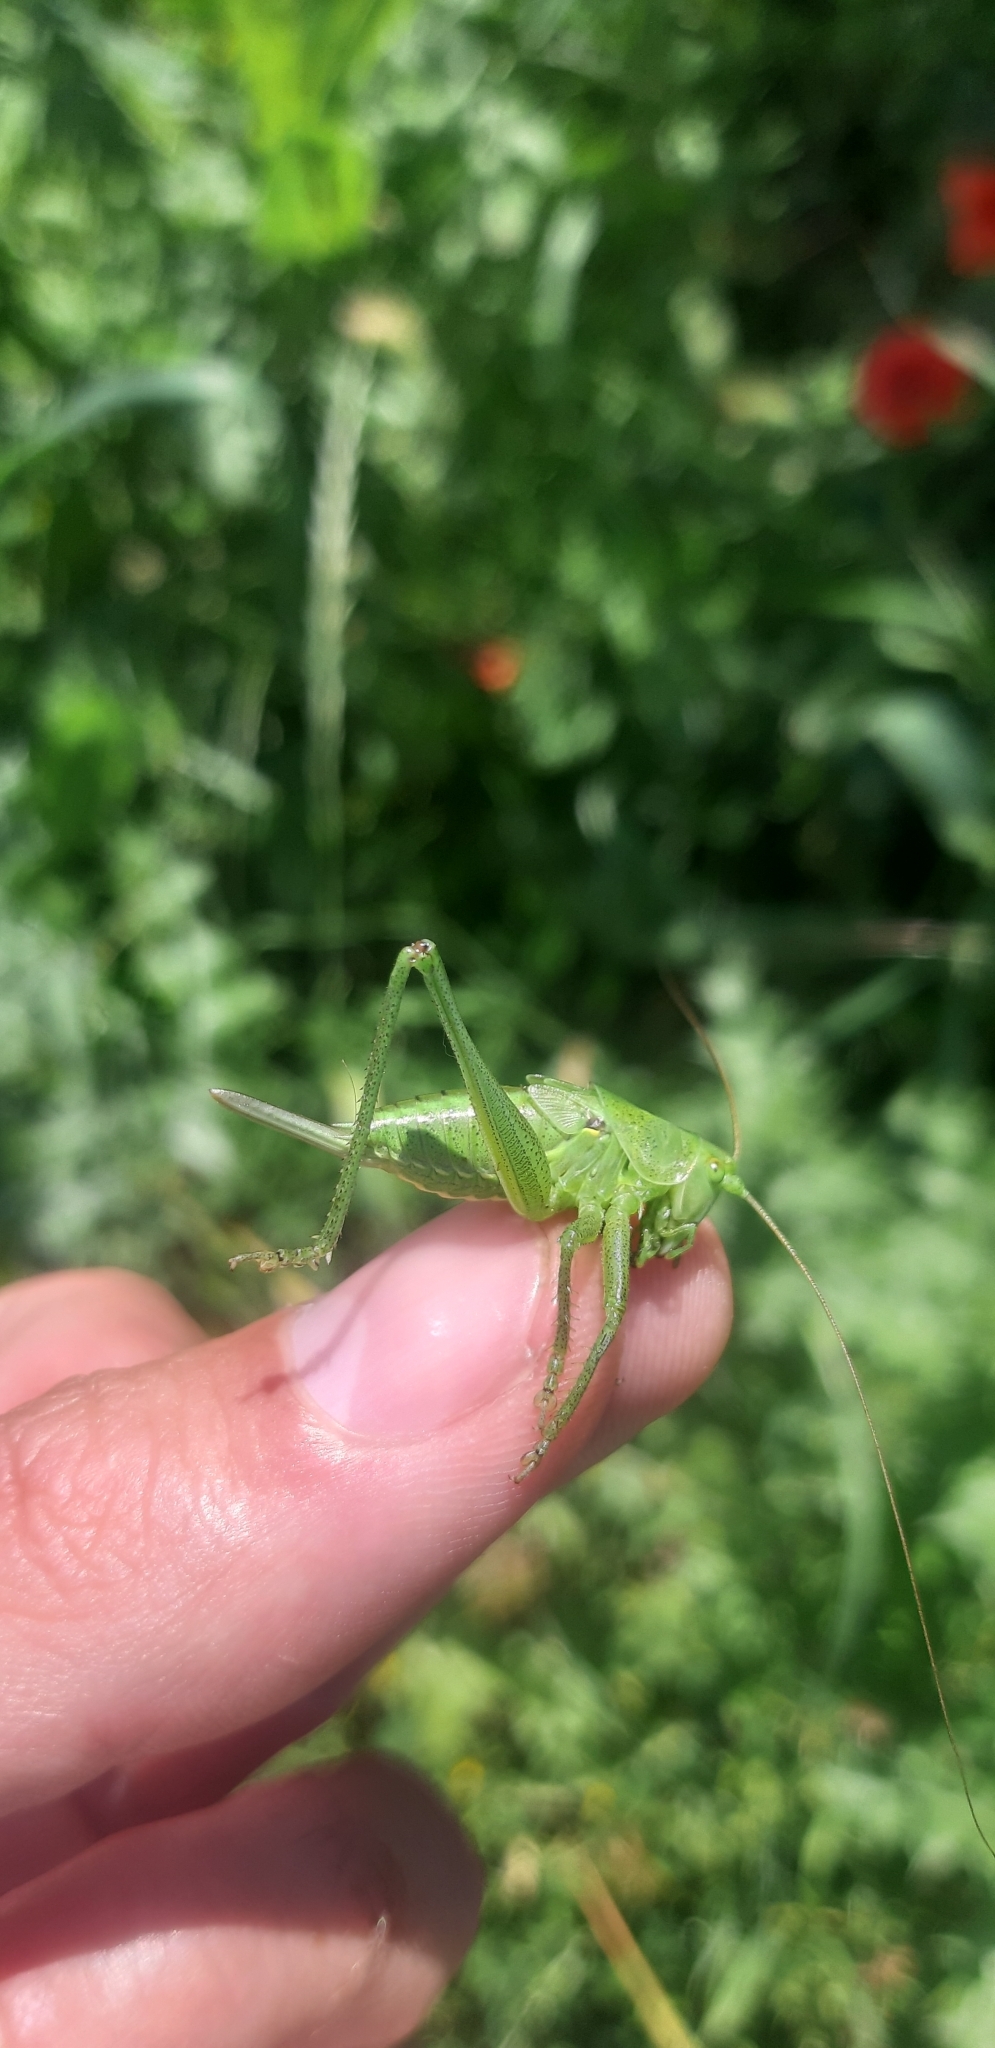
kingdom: Animalia
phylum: Arthropoda
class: Insecta
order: Orthoptera
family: Tettigoniidae
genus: Tettigonia
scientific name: Tettigonia viridissima
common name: Great green bush-cricket
